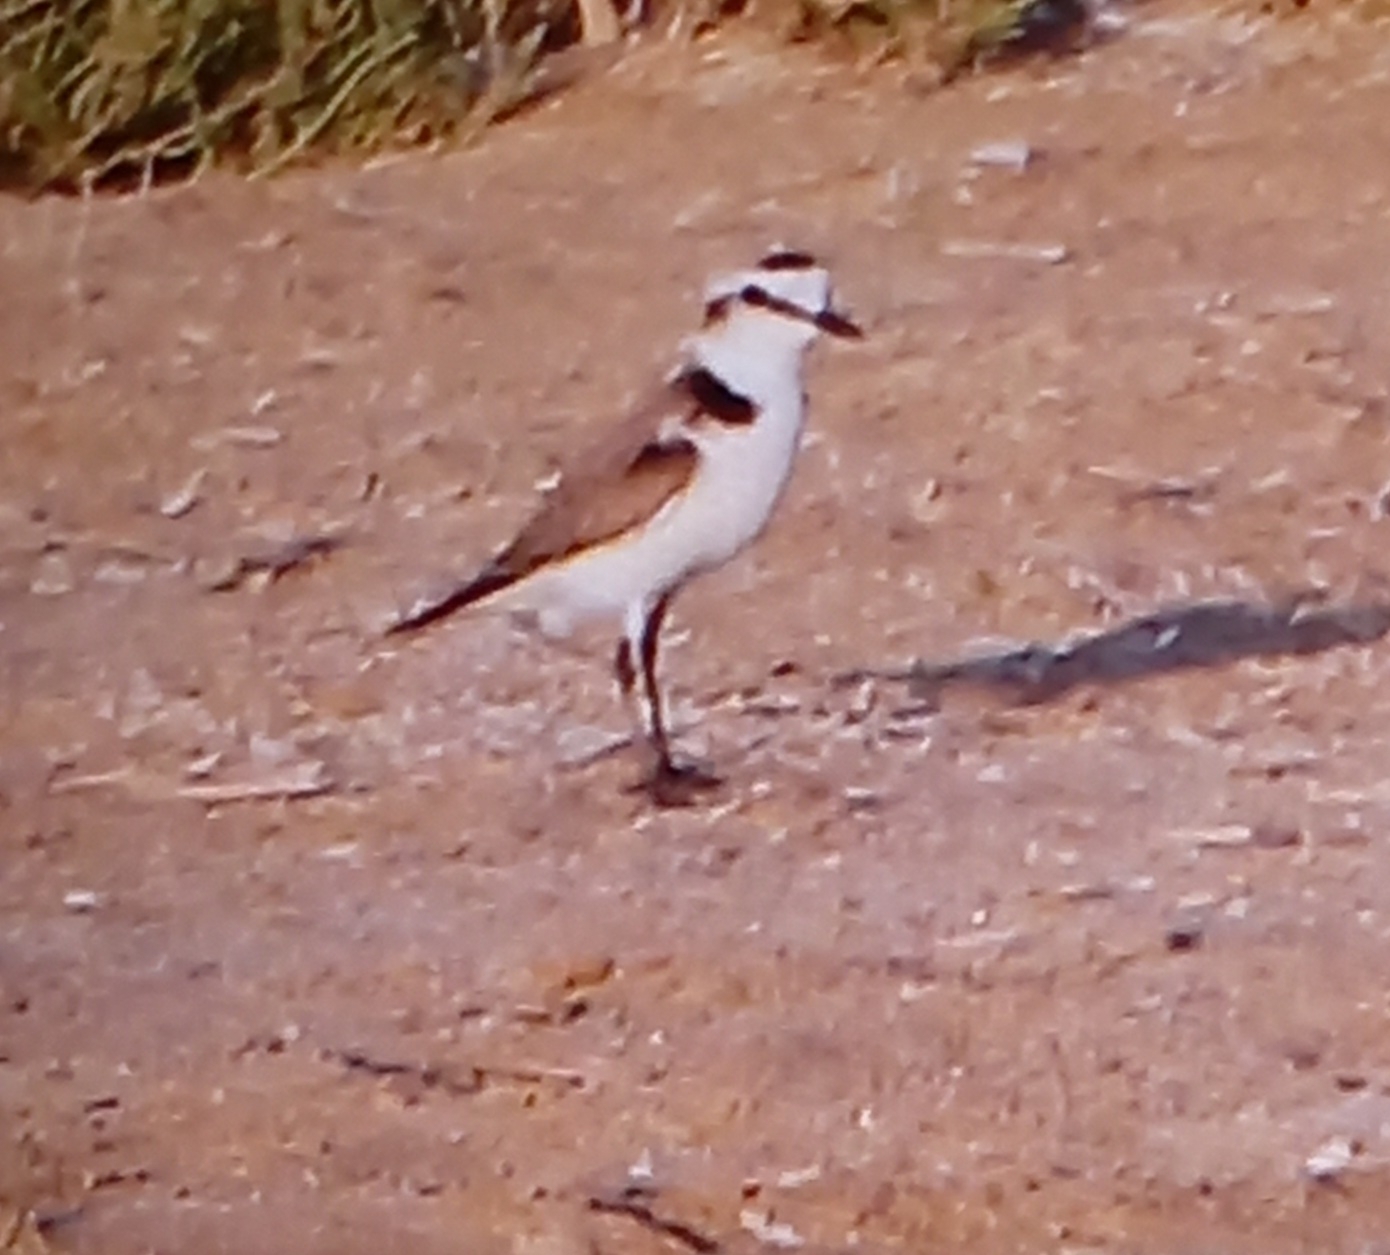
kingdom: Animalia
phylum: Chordata
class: Aves
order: Charadriiformes
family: Charadriidae
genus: Charadrius
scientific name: Charadrius alexandrinus
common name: Kentish plover
